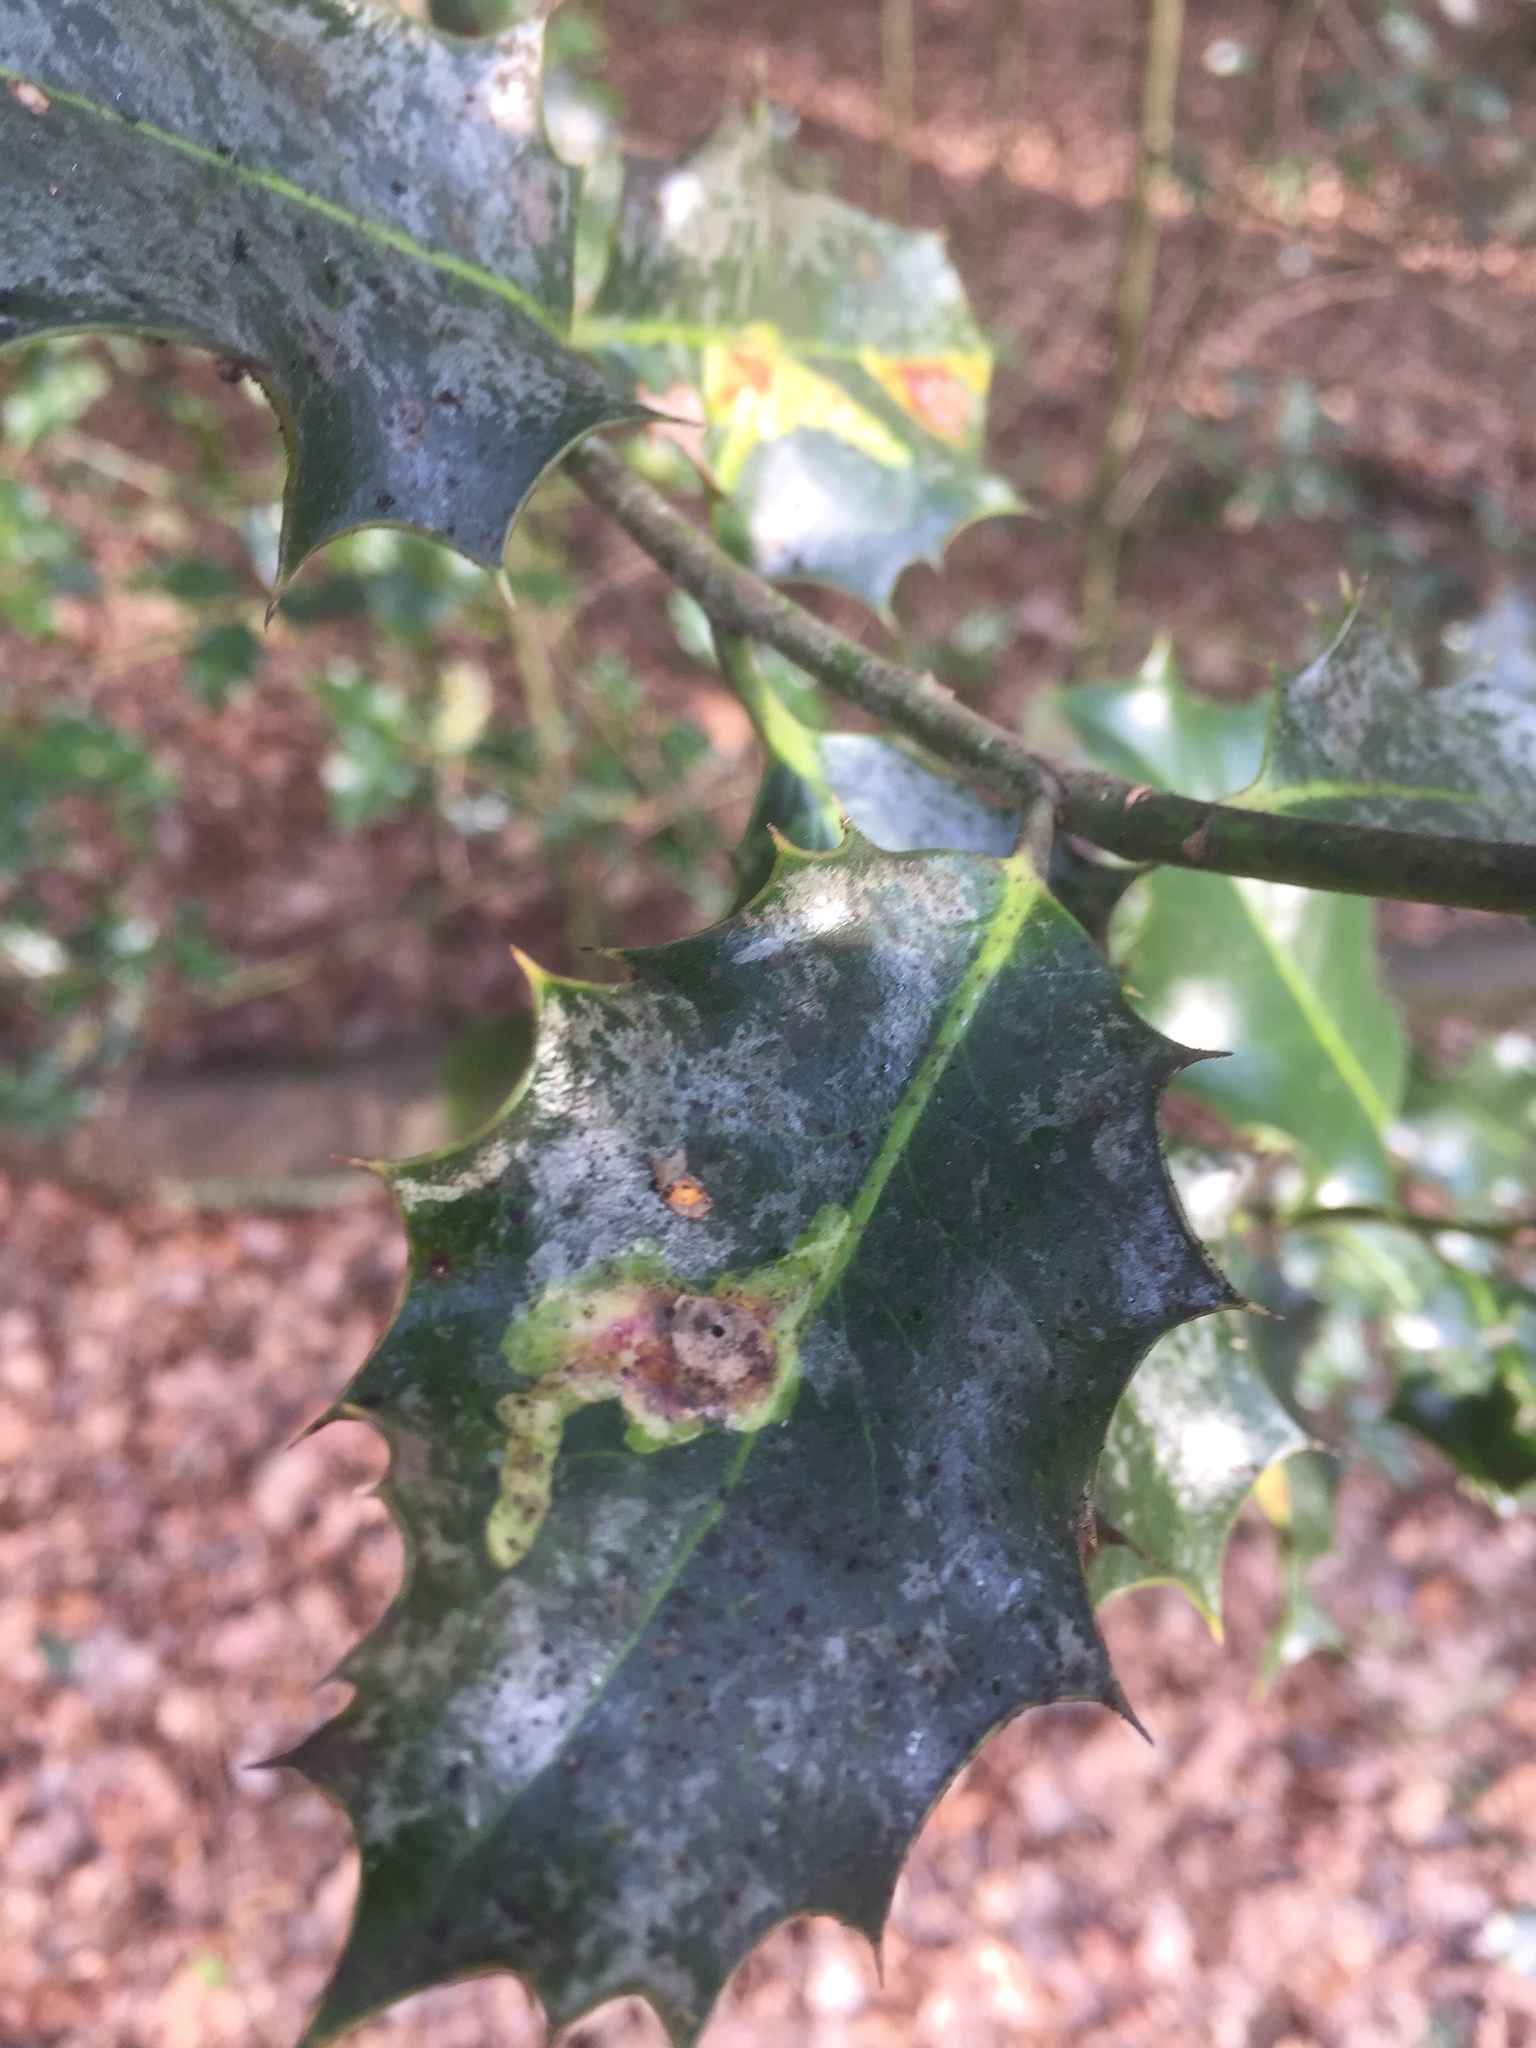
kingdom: Animalia
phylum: Arthropoda
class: Insecta
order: Diptera
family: Agromyzidae
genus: Phytomyza
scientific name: Phytomyza ilicis
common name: Holly leafminer
